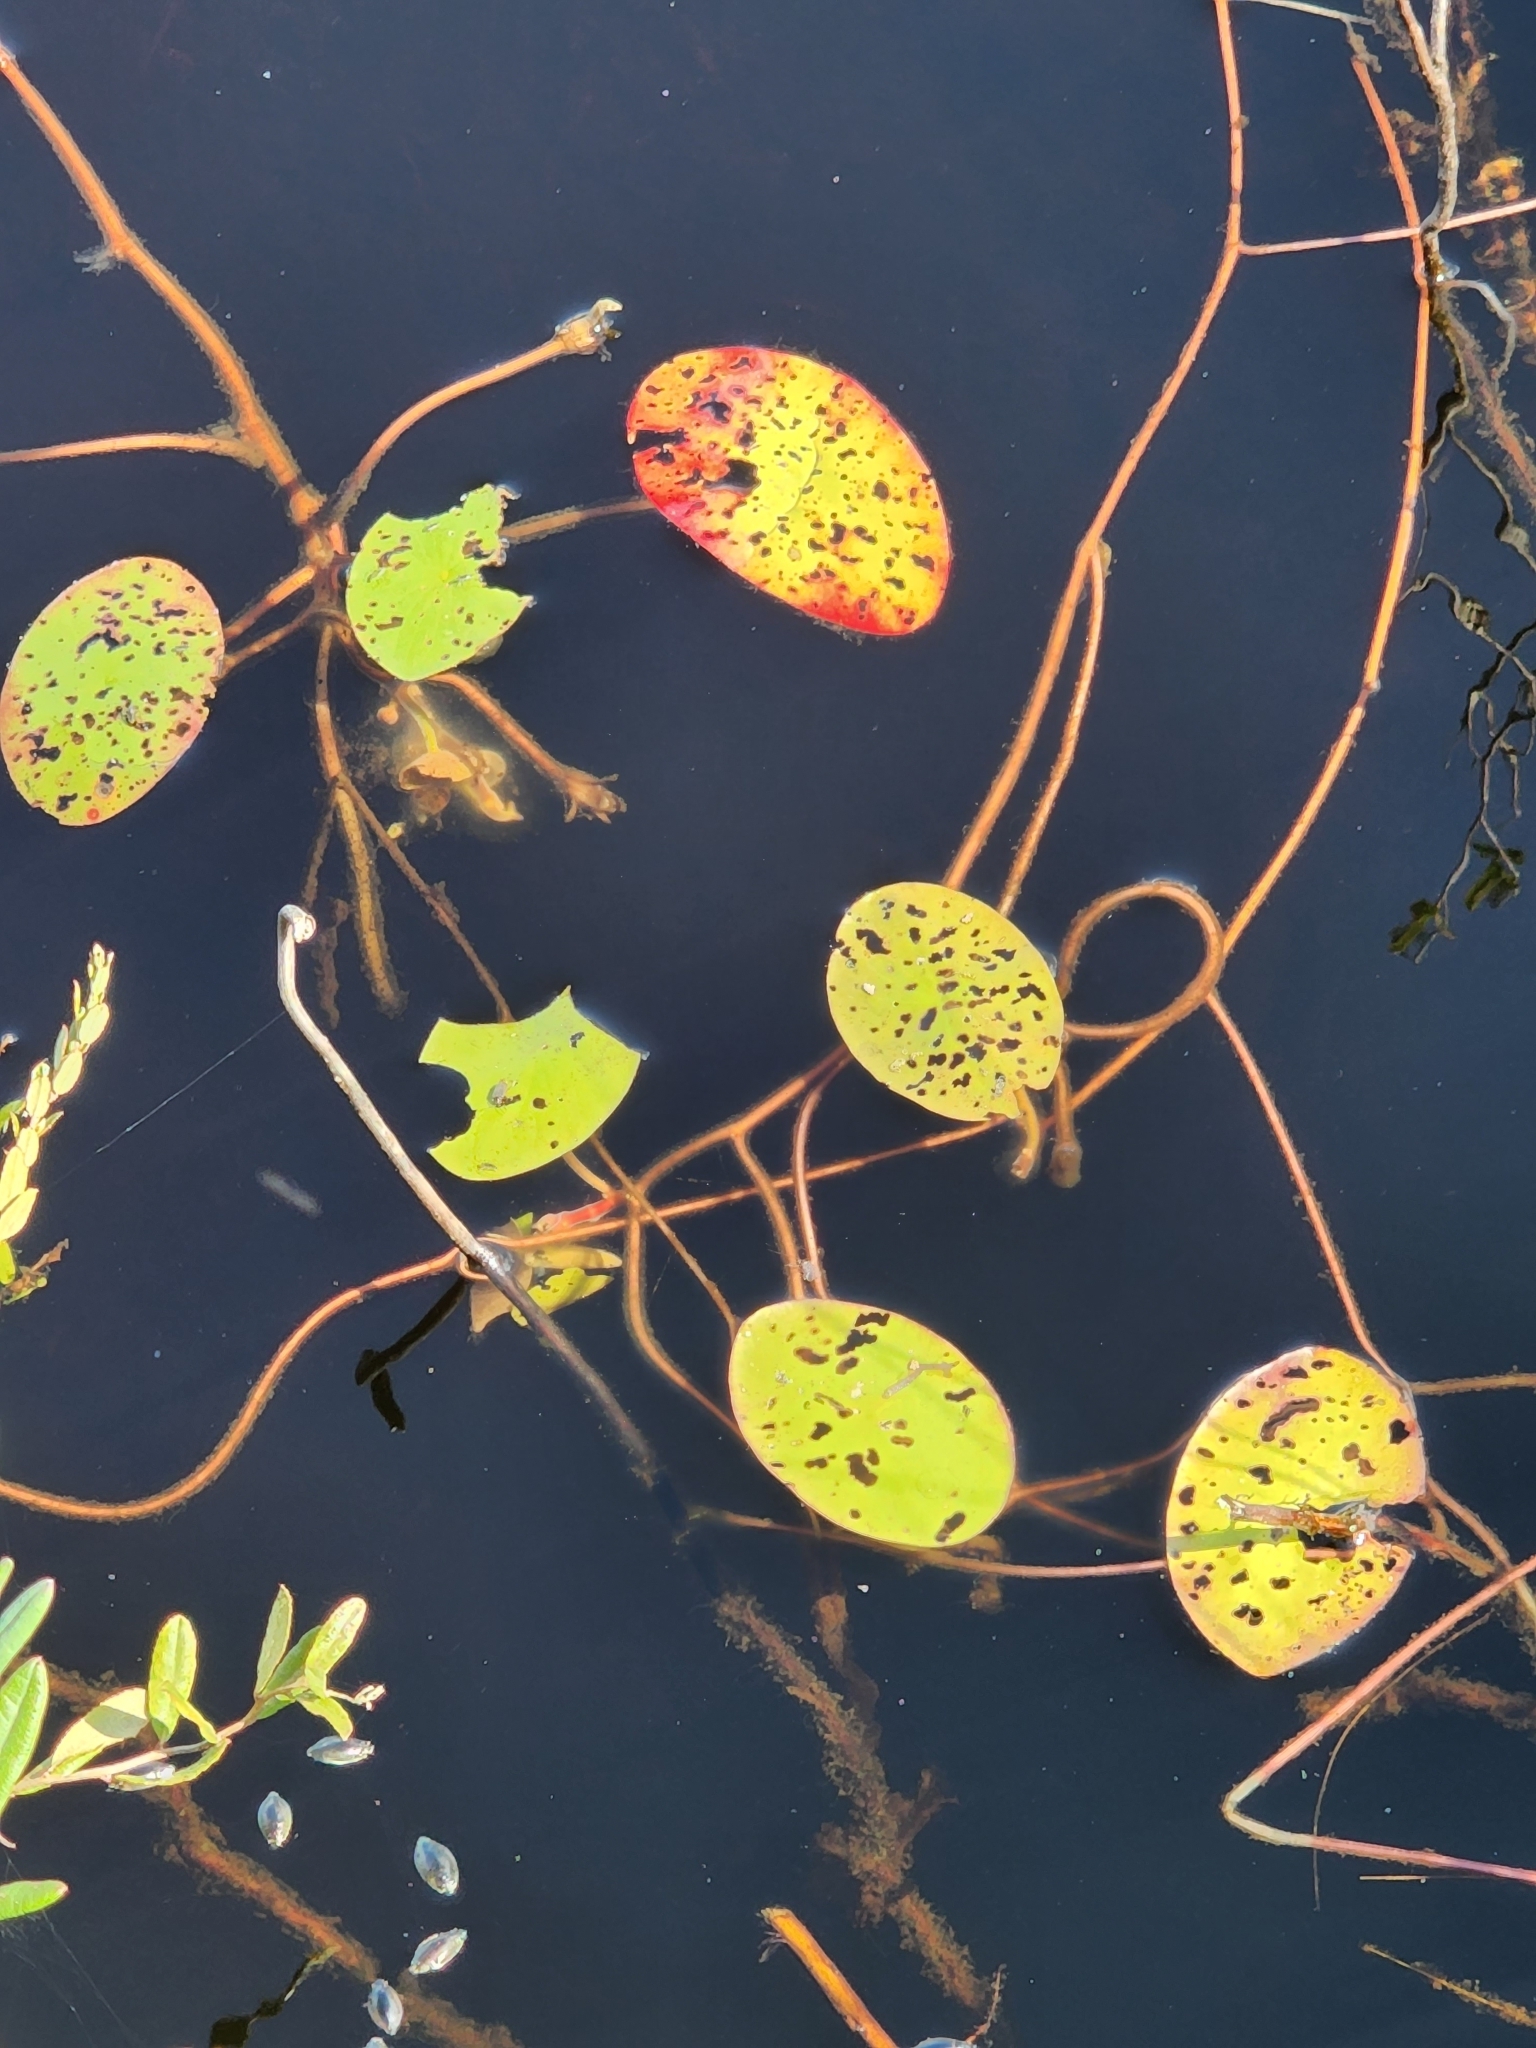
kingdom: Plantae
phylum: Tracheophyta
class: Magnoliopsida
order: Nymphaeales
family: Cabombaceae
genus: Brasenia
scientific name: Brasenia schreberi
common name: Water-shield
